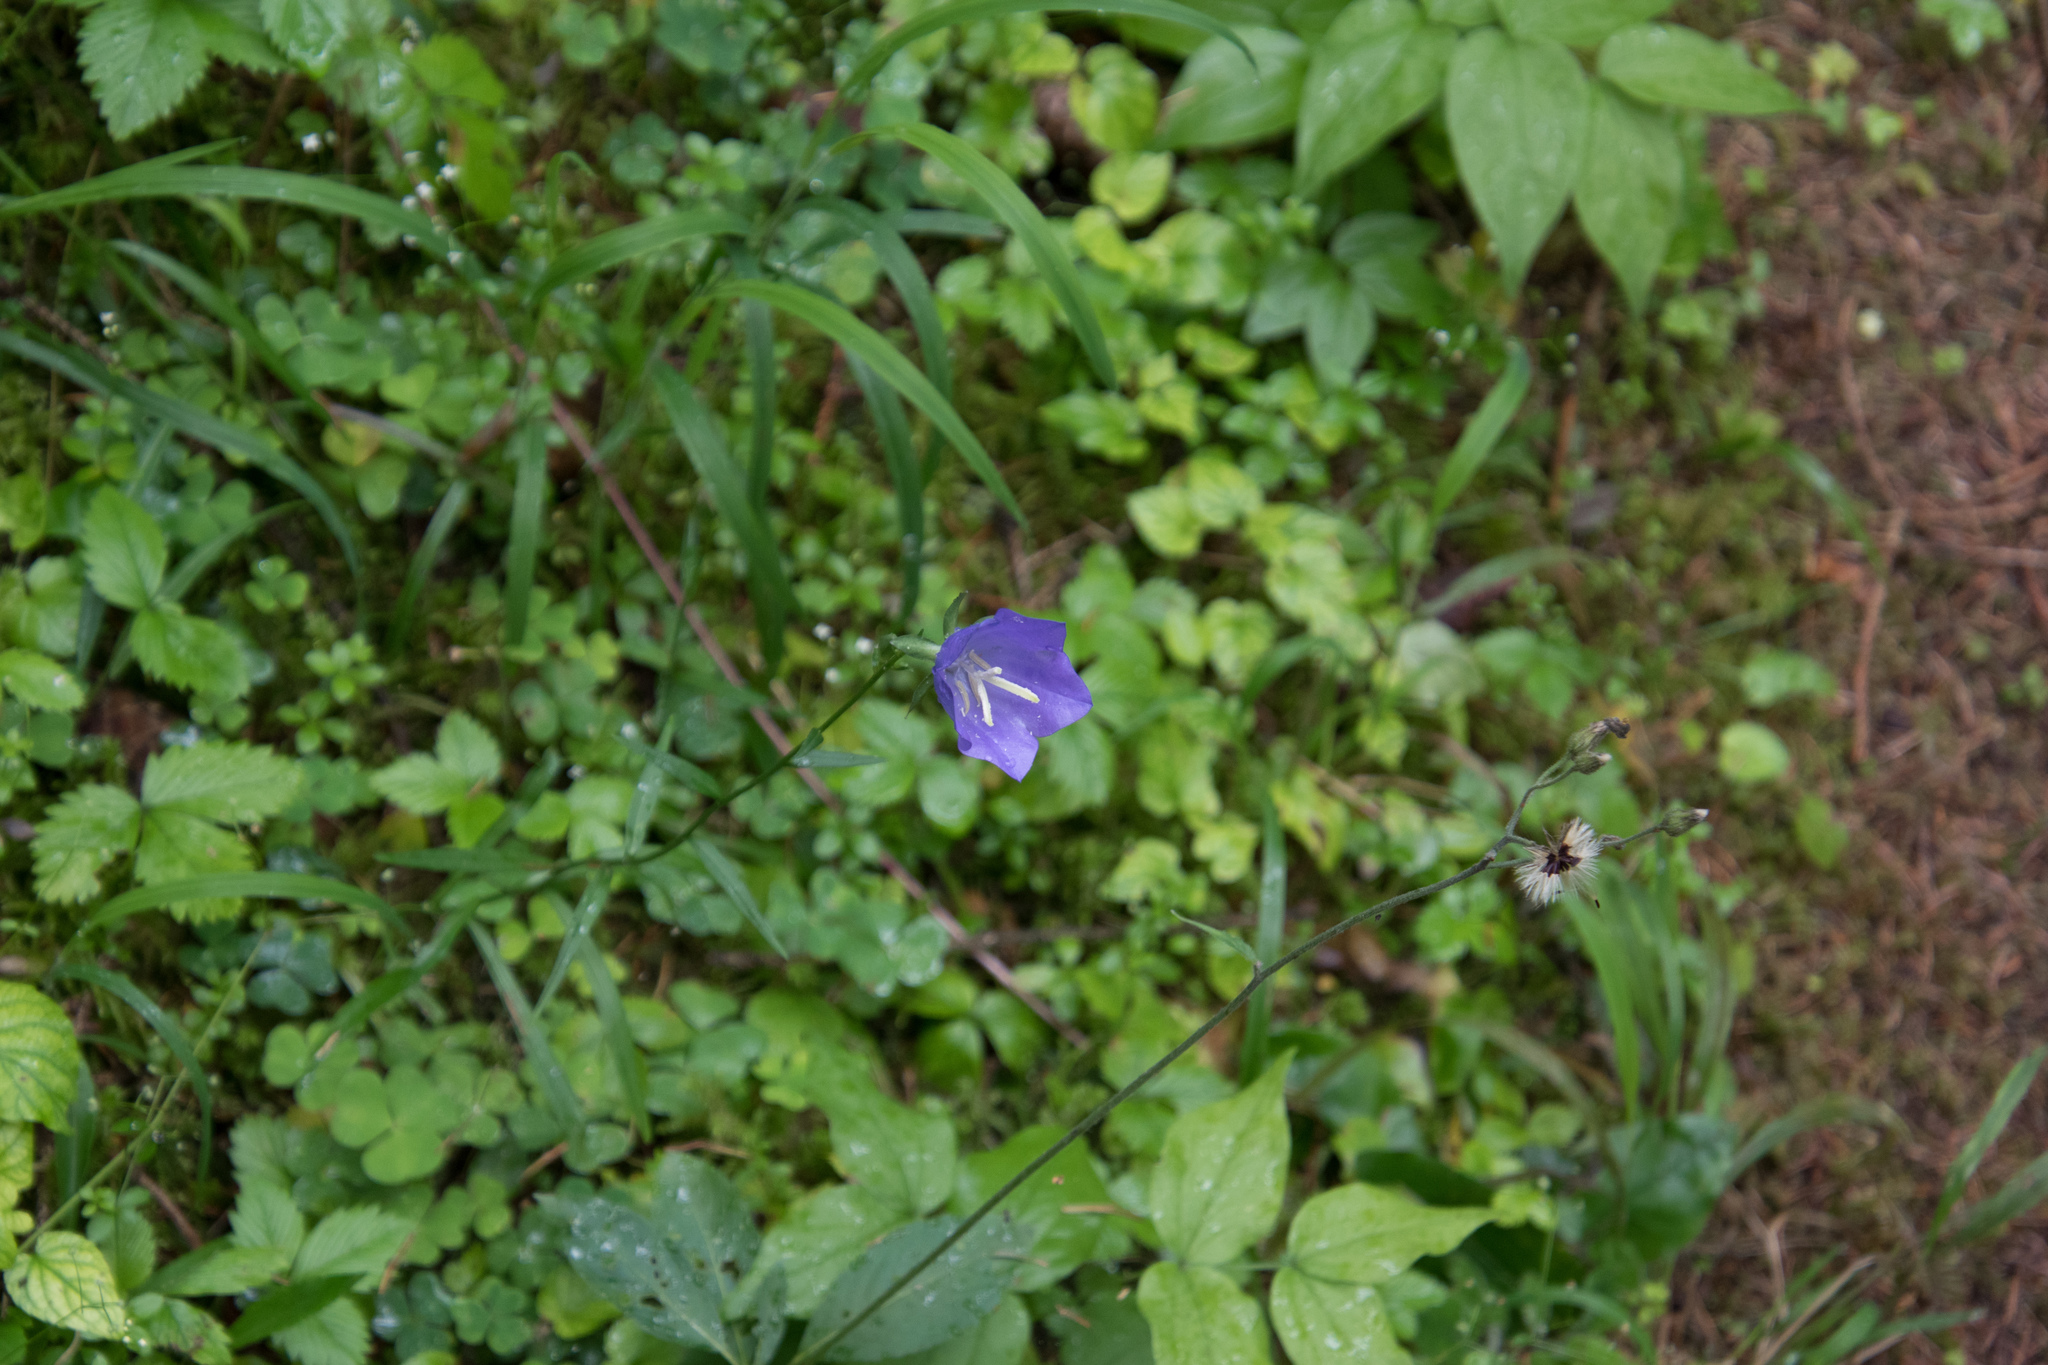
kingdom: Plantae
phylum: Tracheophyta
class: Magnoliopsida
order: Asterales
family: Campanulaceae
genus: Campanula
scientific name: Campanula persicifolia
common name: Peach-leaved bellflower
